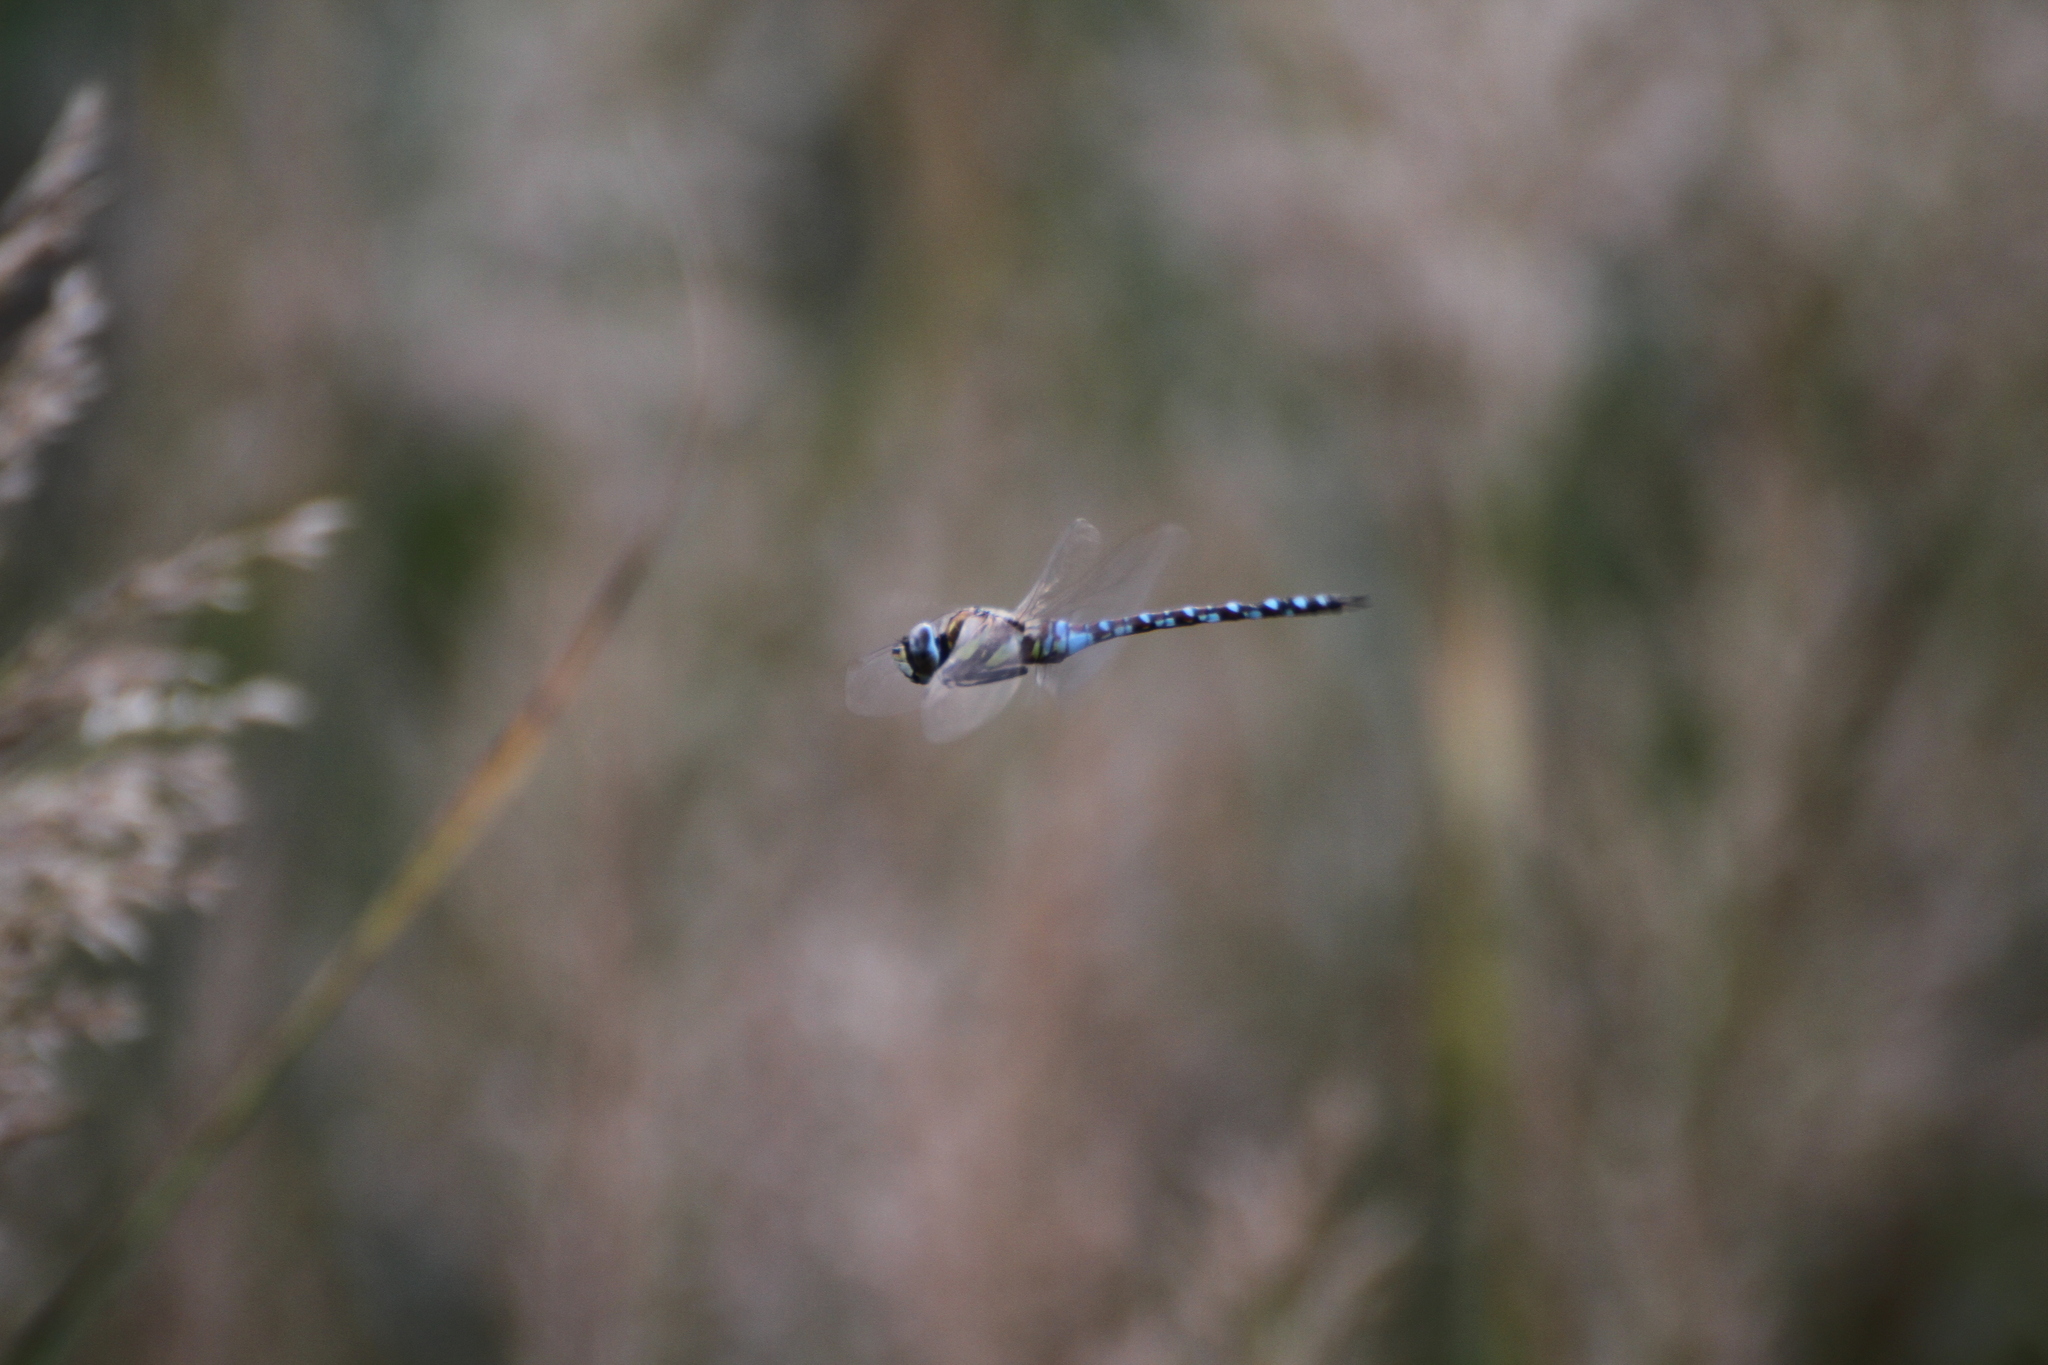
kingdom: Animalia
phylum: Arthropoda
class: Insecta
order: Odonata
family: Aeshnidae
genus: Aeshna
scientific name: Aeshna mixta
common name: Migrant hawker
